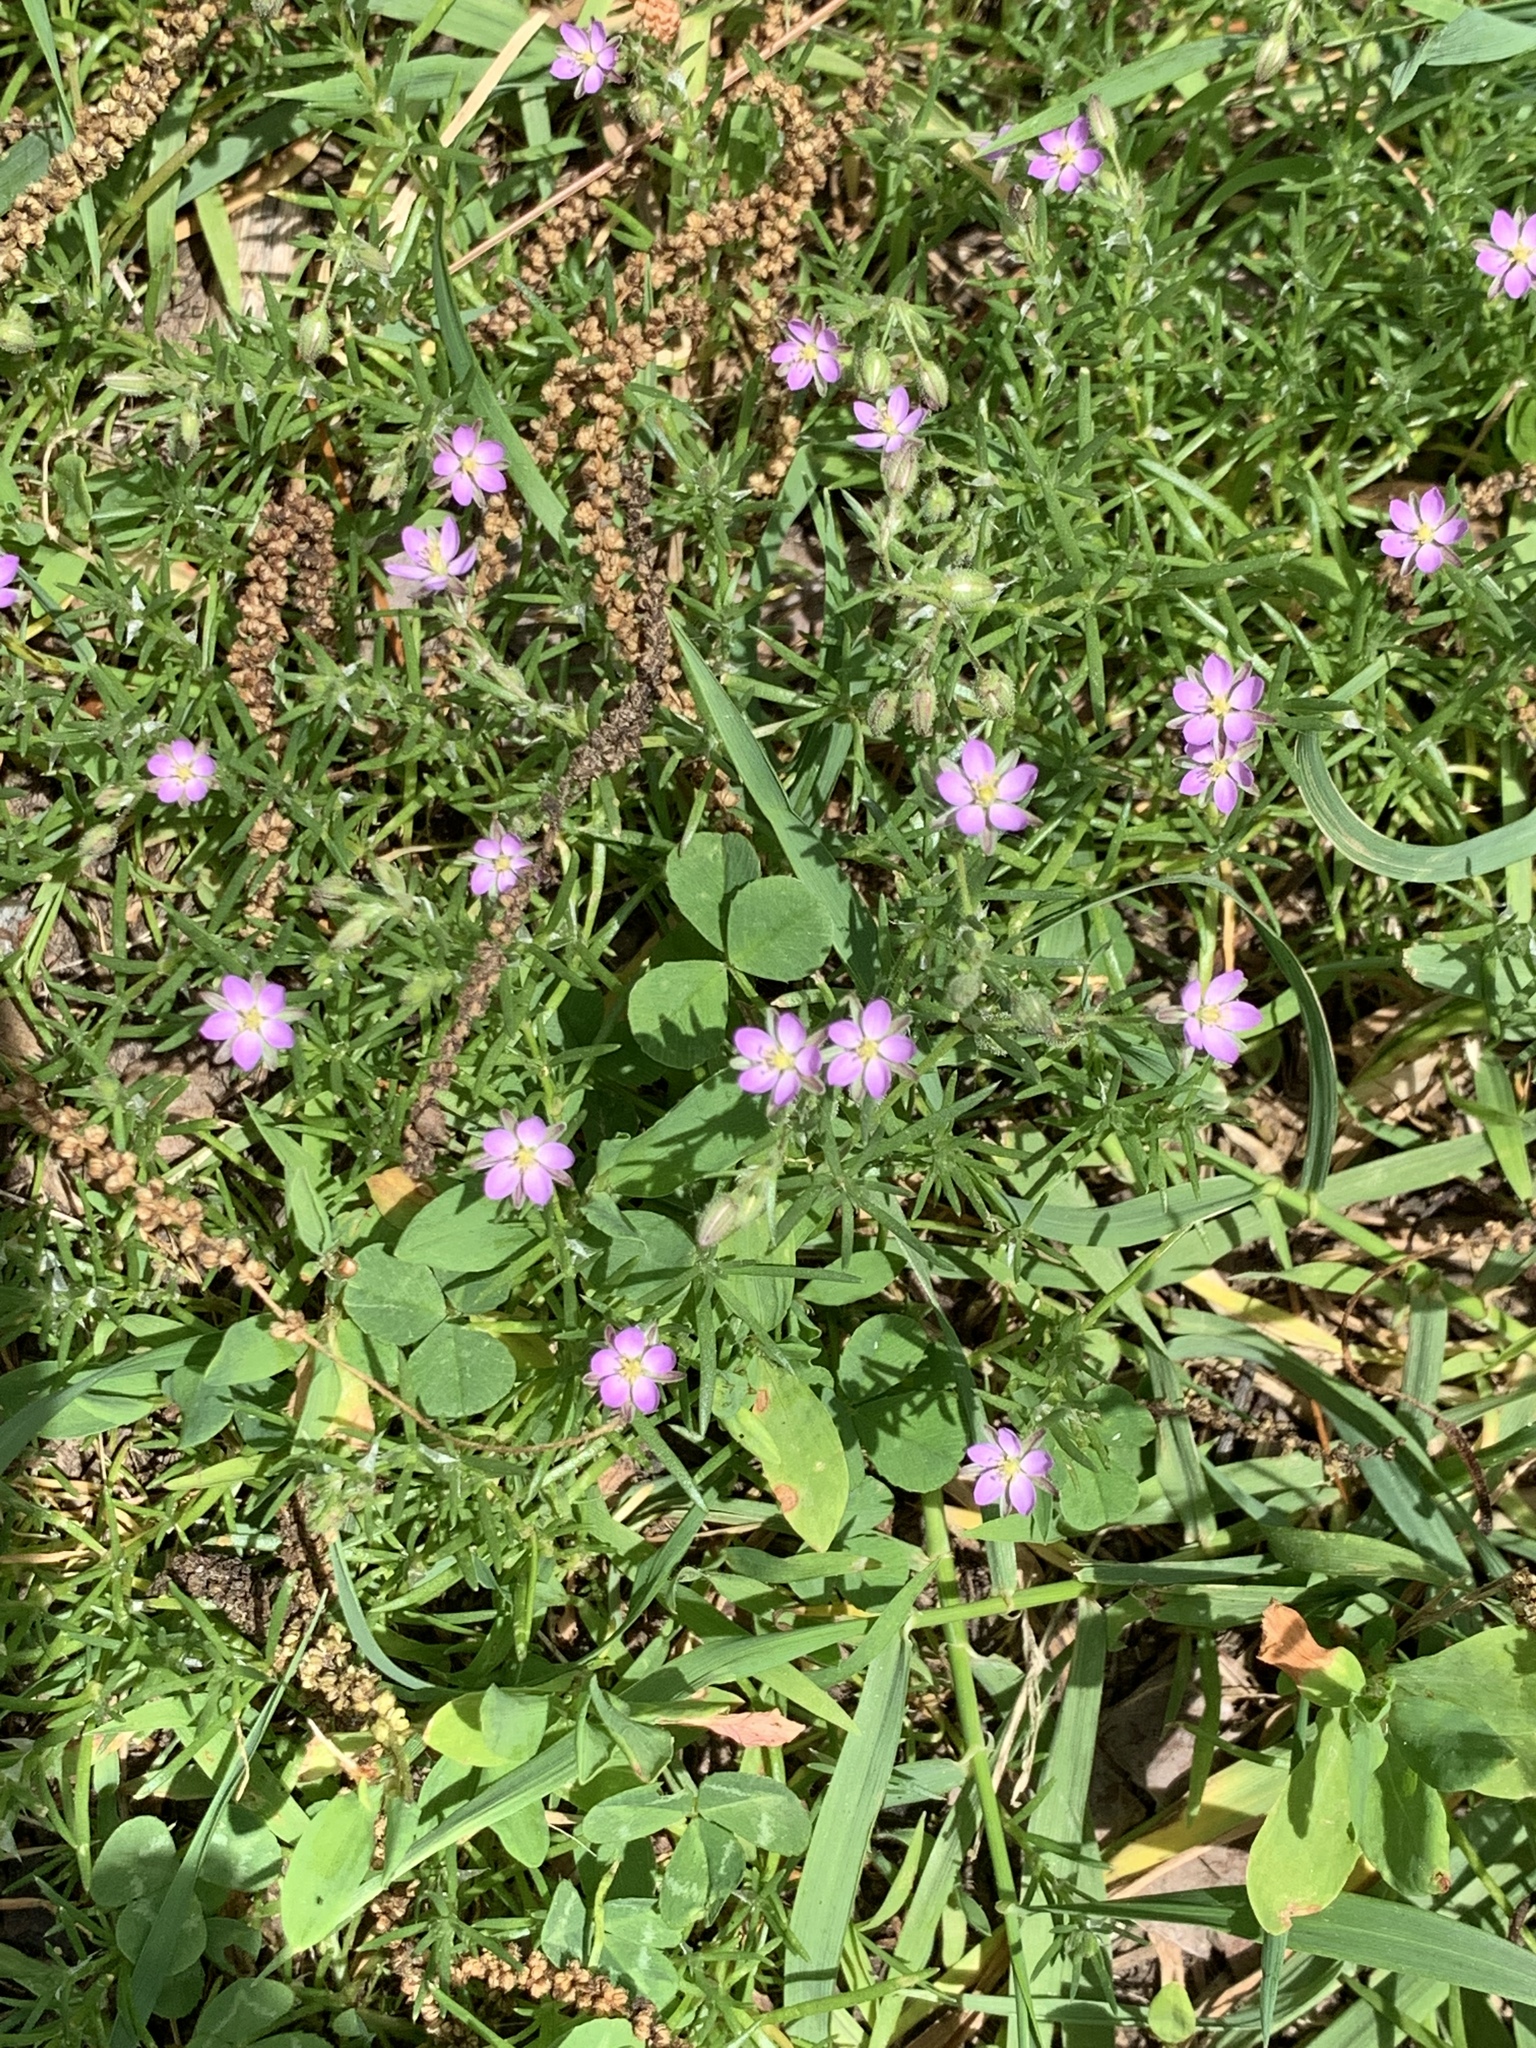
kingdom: Plantae
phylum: Tracheophyta
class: Magnoliopsida
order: Caryophyllales
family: Caryophyllaceae
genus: Spergularia
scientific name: Spergularia rubra
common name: Red sand-spurrey
